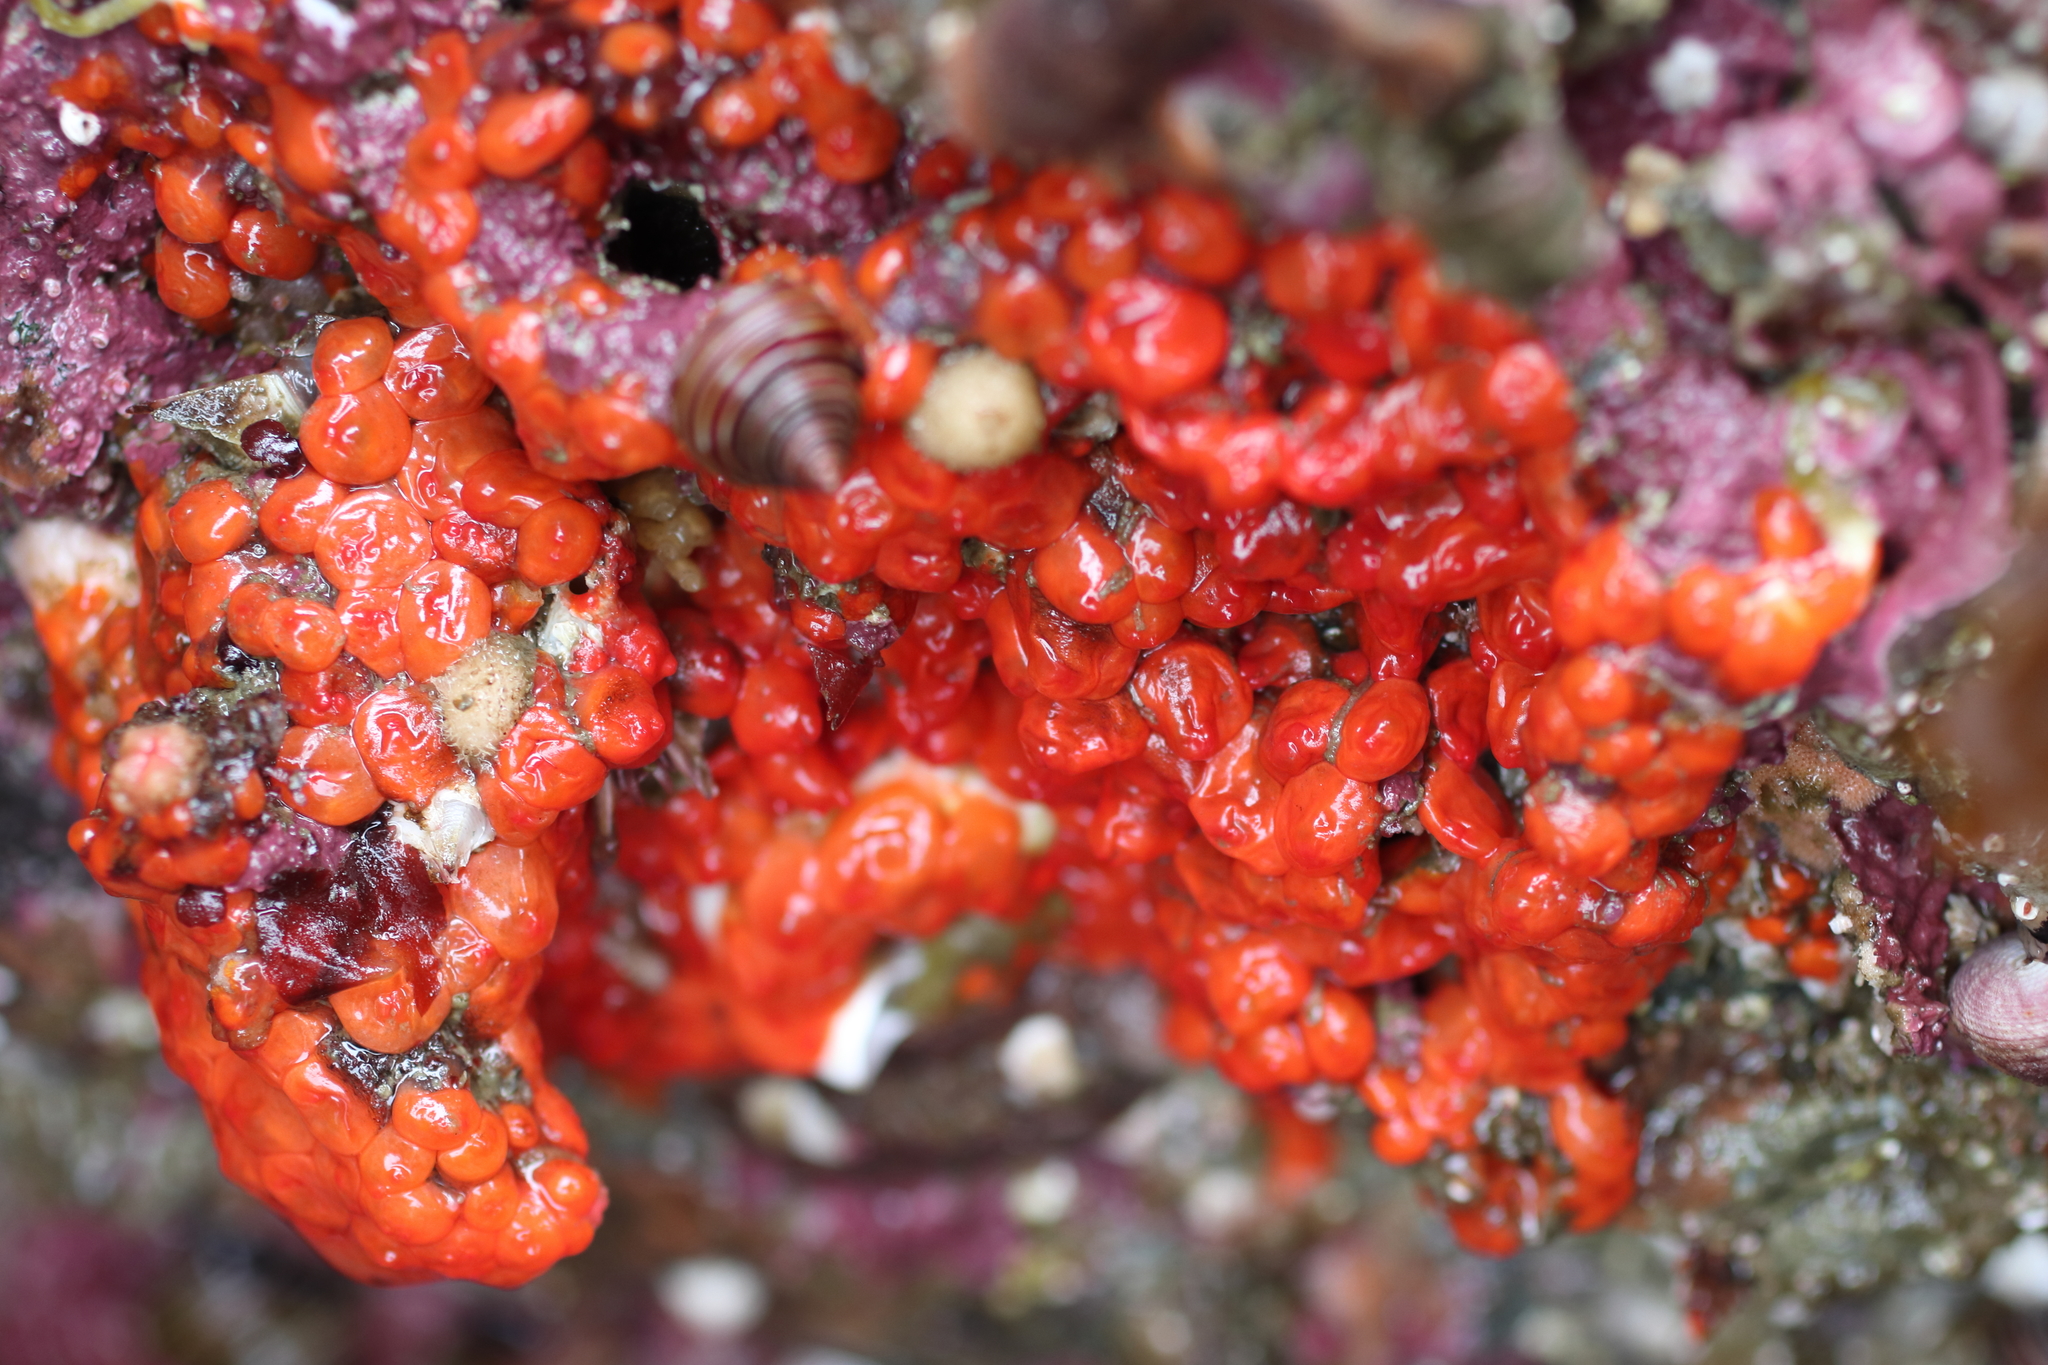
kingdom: Animalia
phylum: Chordata
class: Ascidiacea
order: Stolidobranchia
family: Styelidae
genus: Metandrocarpa
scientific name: Metandrocarpa taylori
